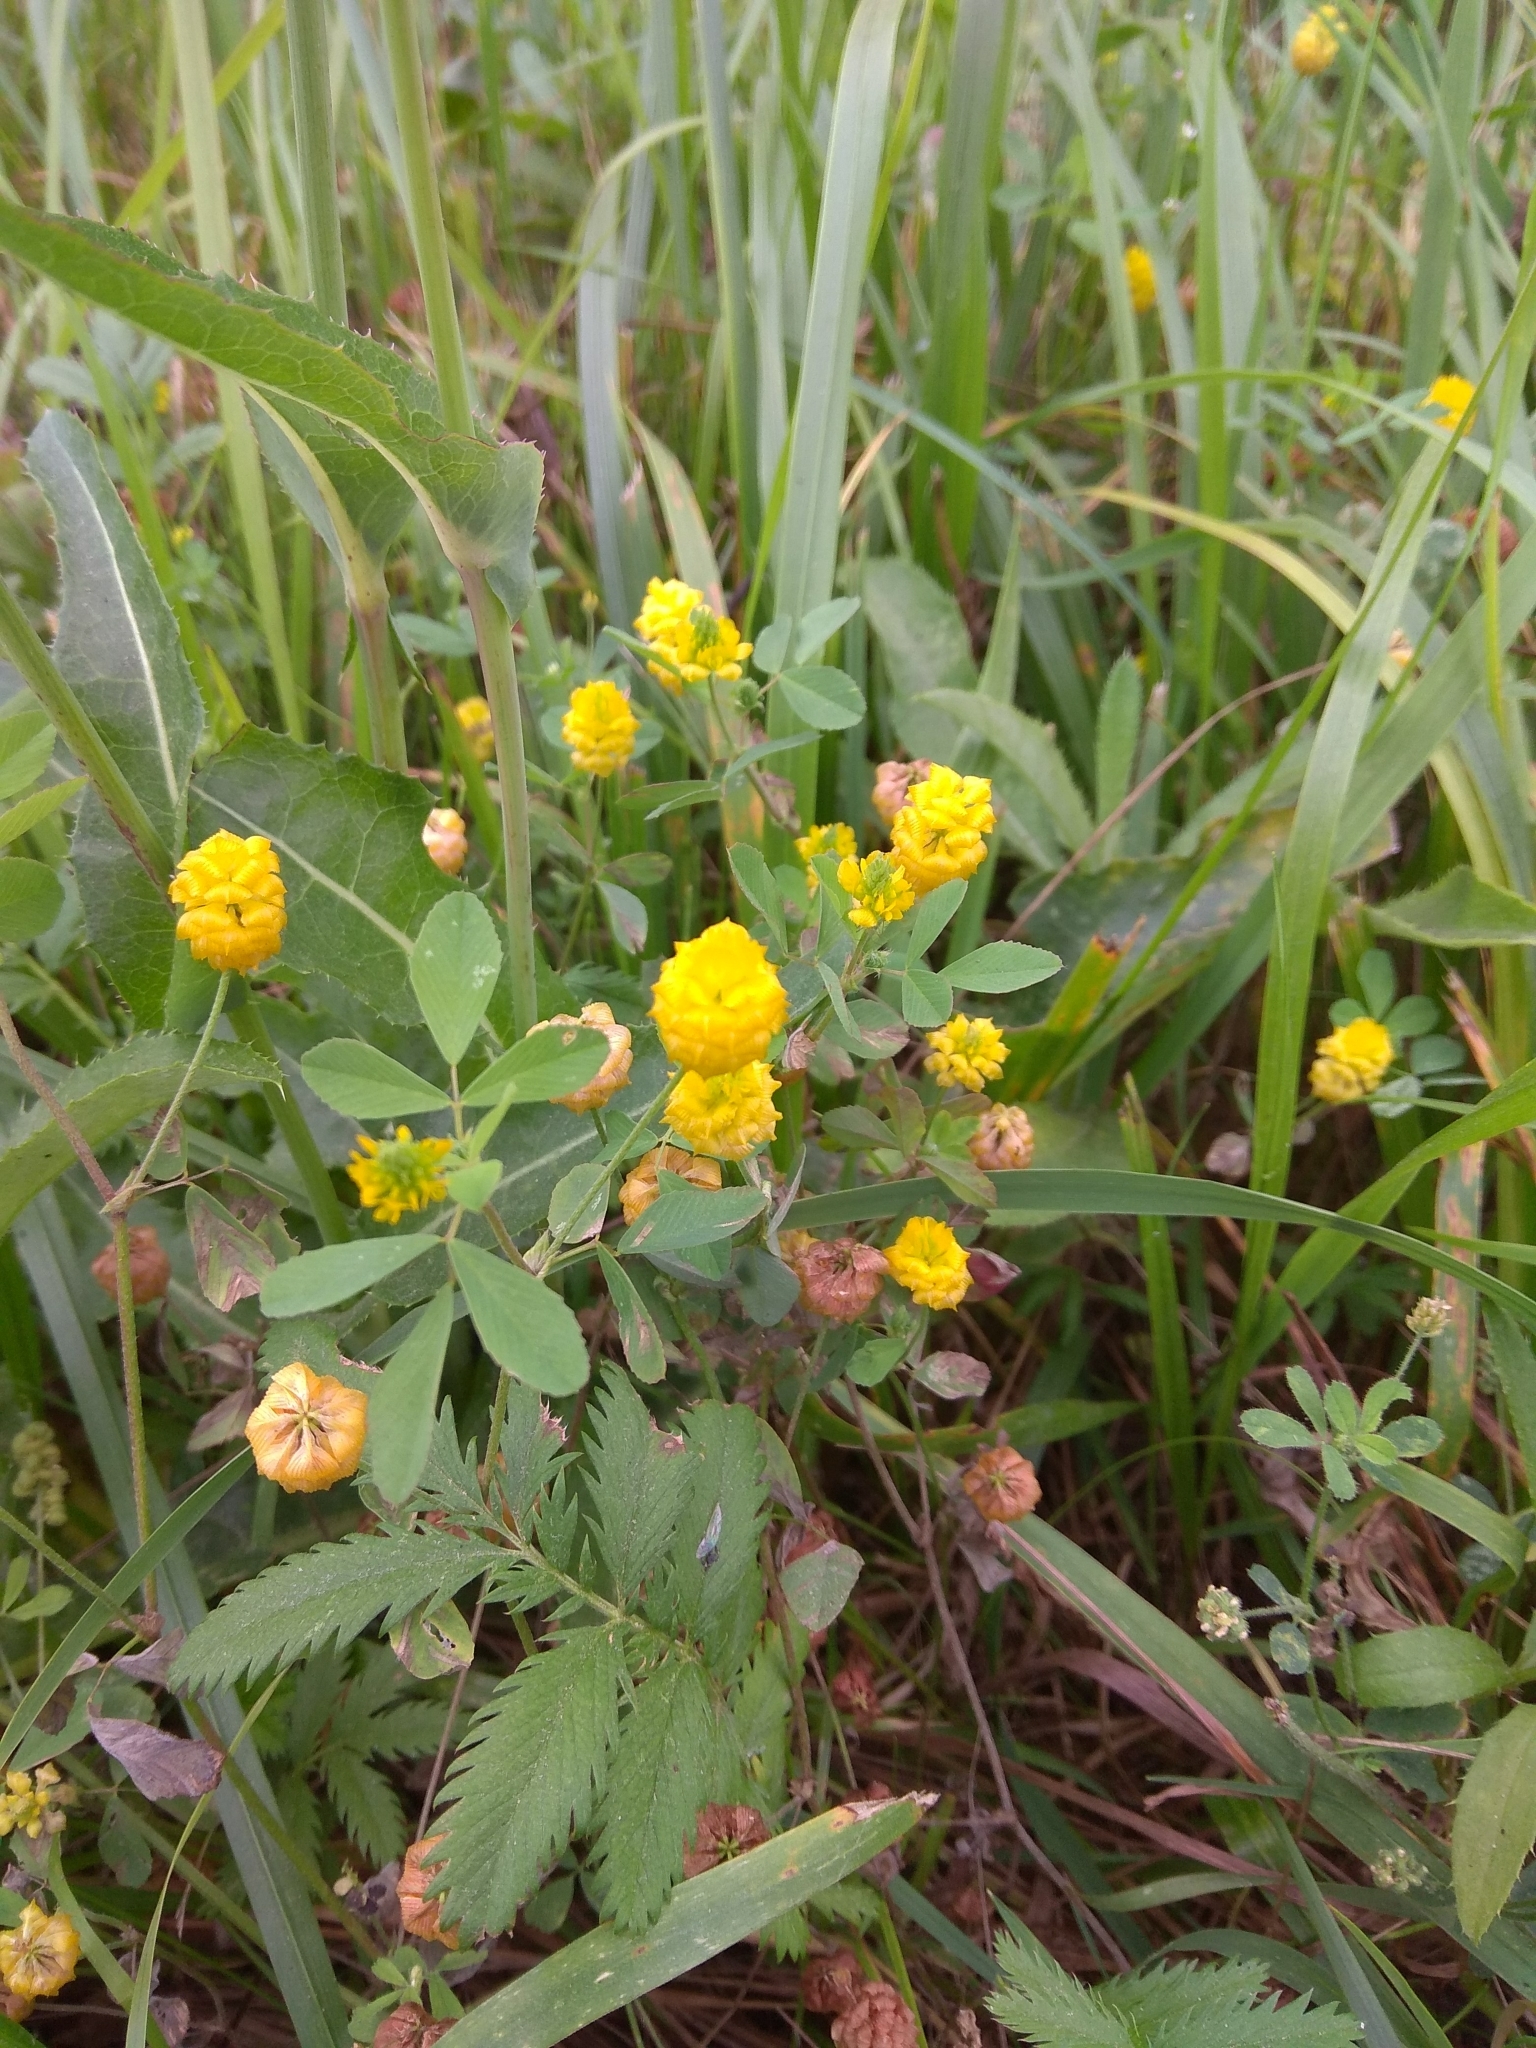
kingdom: Plantae
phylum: Tracheophyta
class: Magnoliopsida
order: Fabales
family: Fabaceae
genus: Trifolium
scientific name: Trifolium campestre
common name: Field clover
